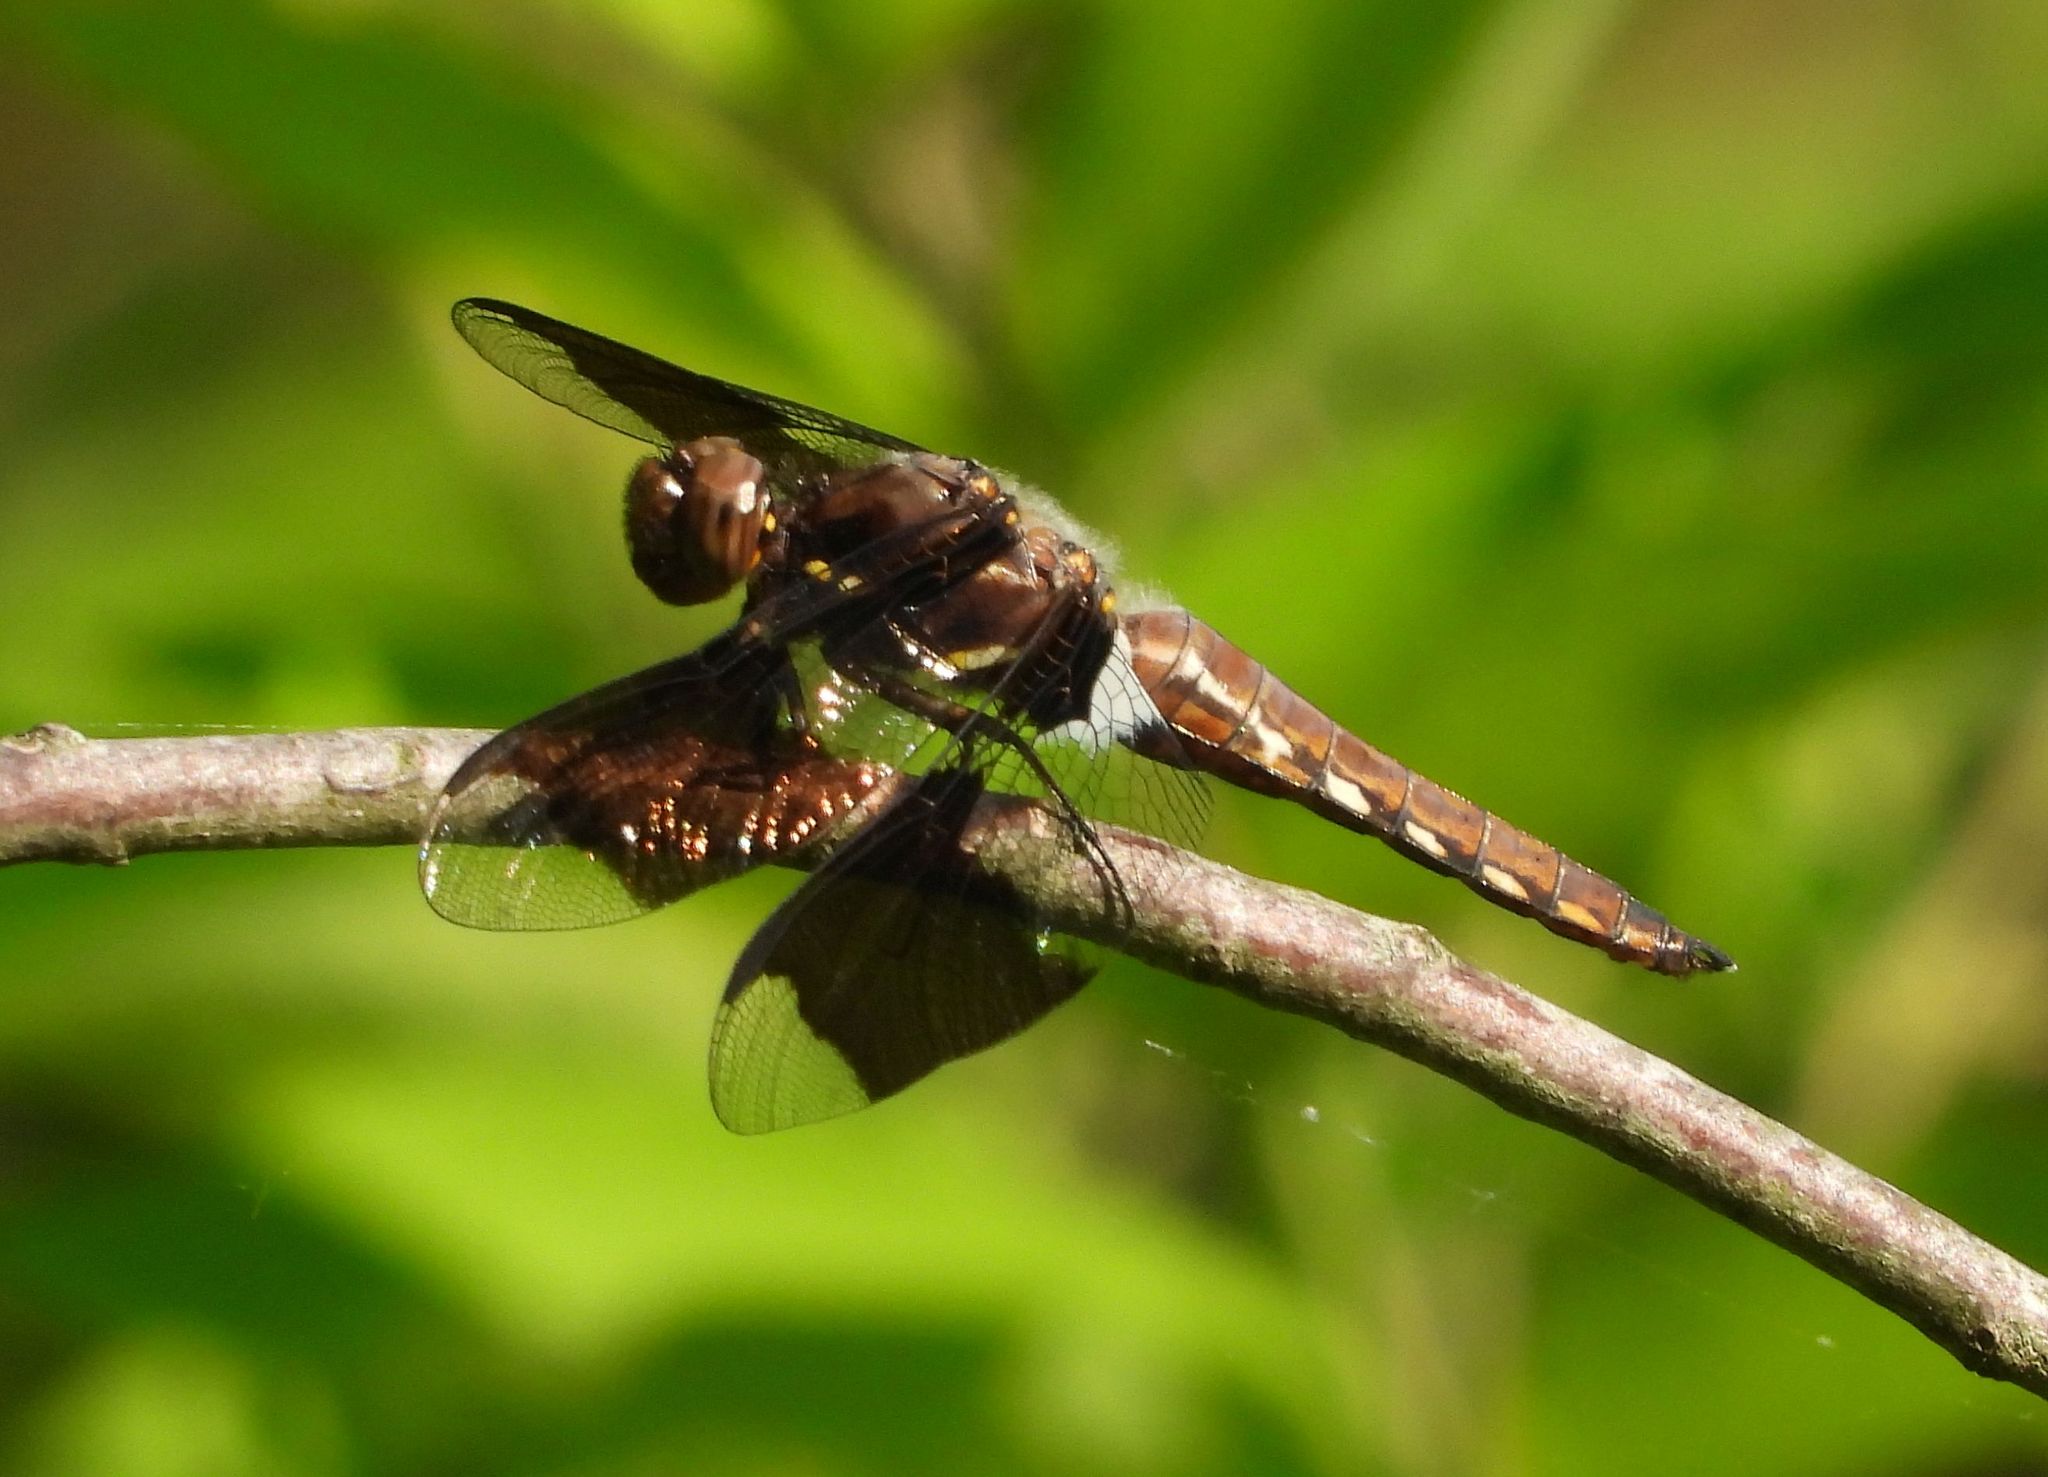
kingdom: Animalia
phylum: Arthropoda
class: Insecta
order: Odonata
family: Libellulidae
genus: Plathemis
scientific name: Plathemis lydia
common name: Common whitetail
